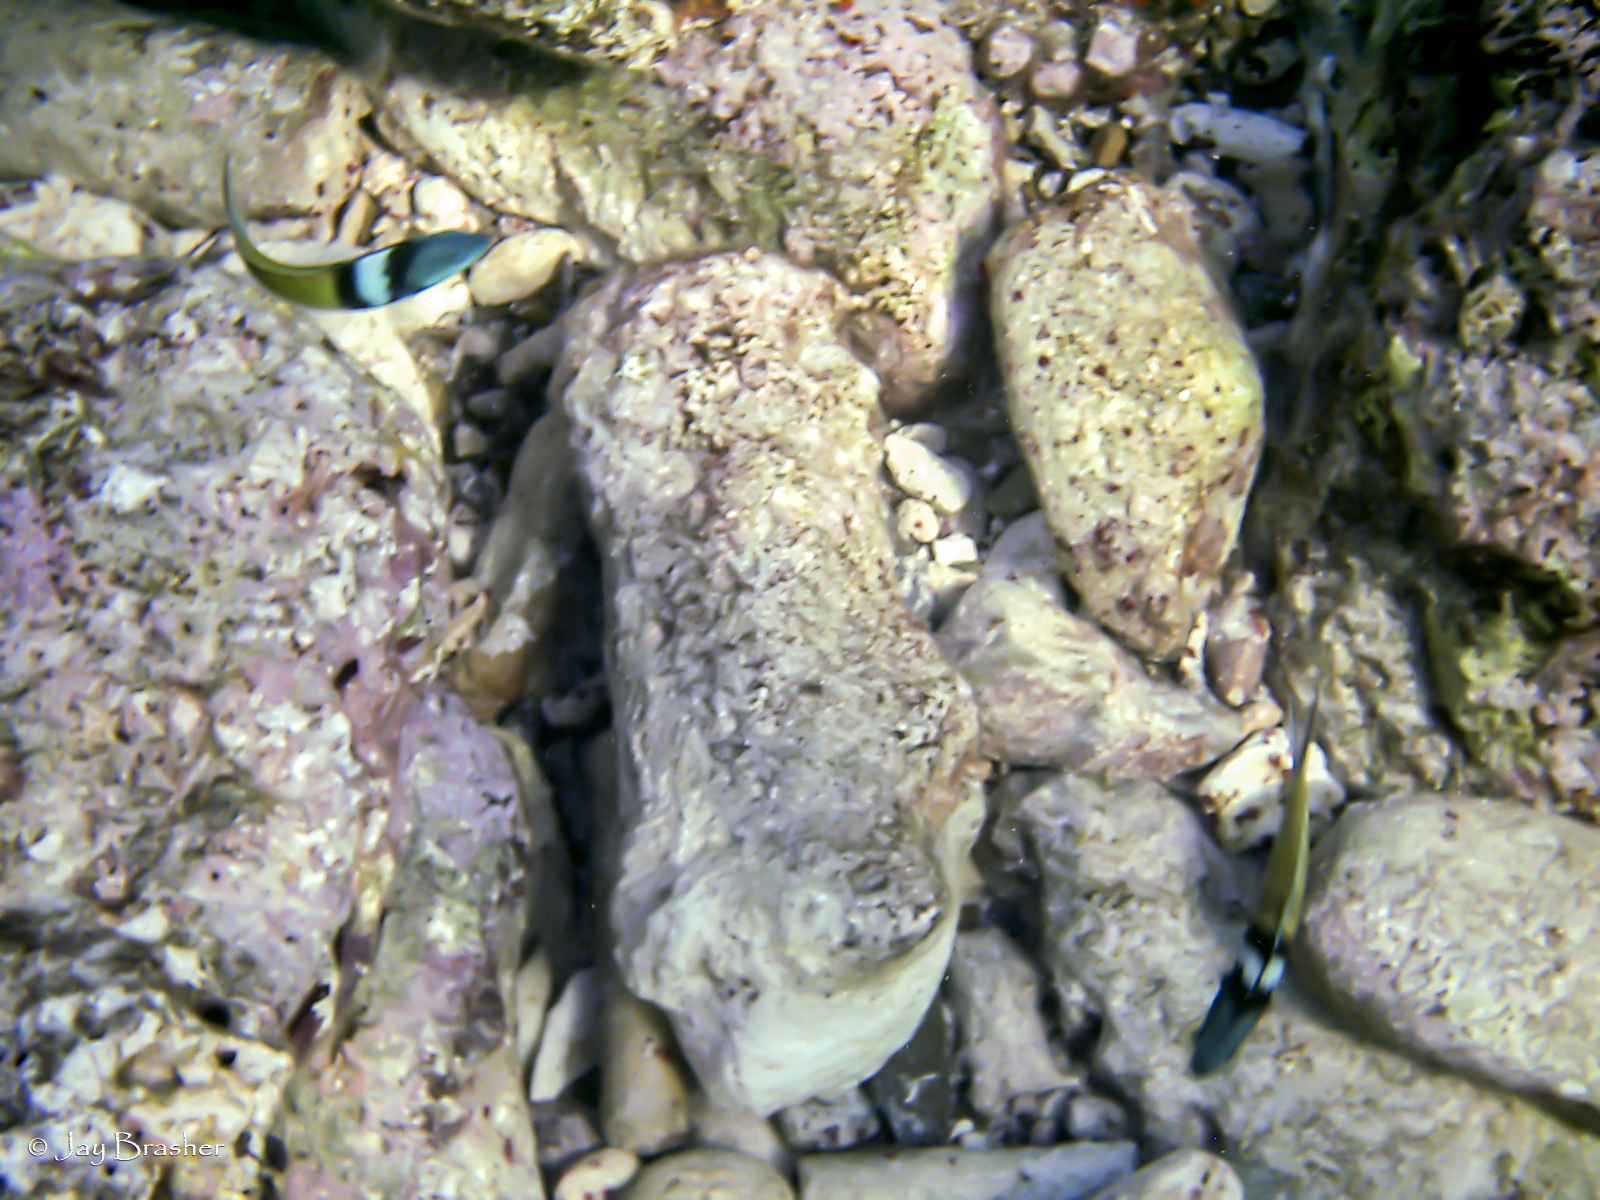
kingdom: Animalia
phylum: Chordata
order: Perciformes
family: Labridae
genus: Thalassoma
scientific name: Thalassoma bifasciatum
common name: Bluehead wrasse
